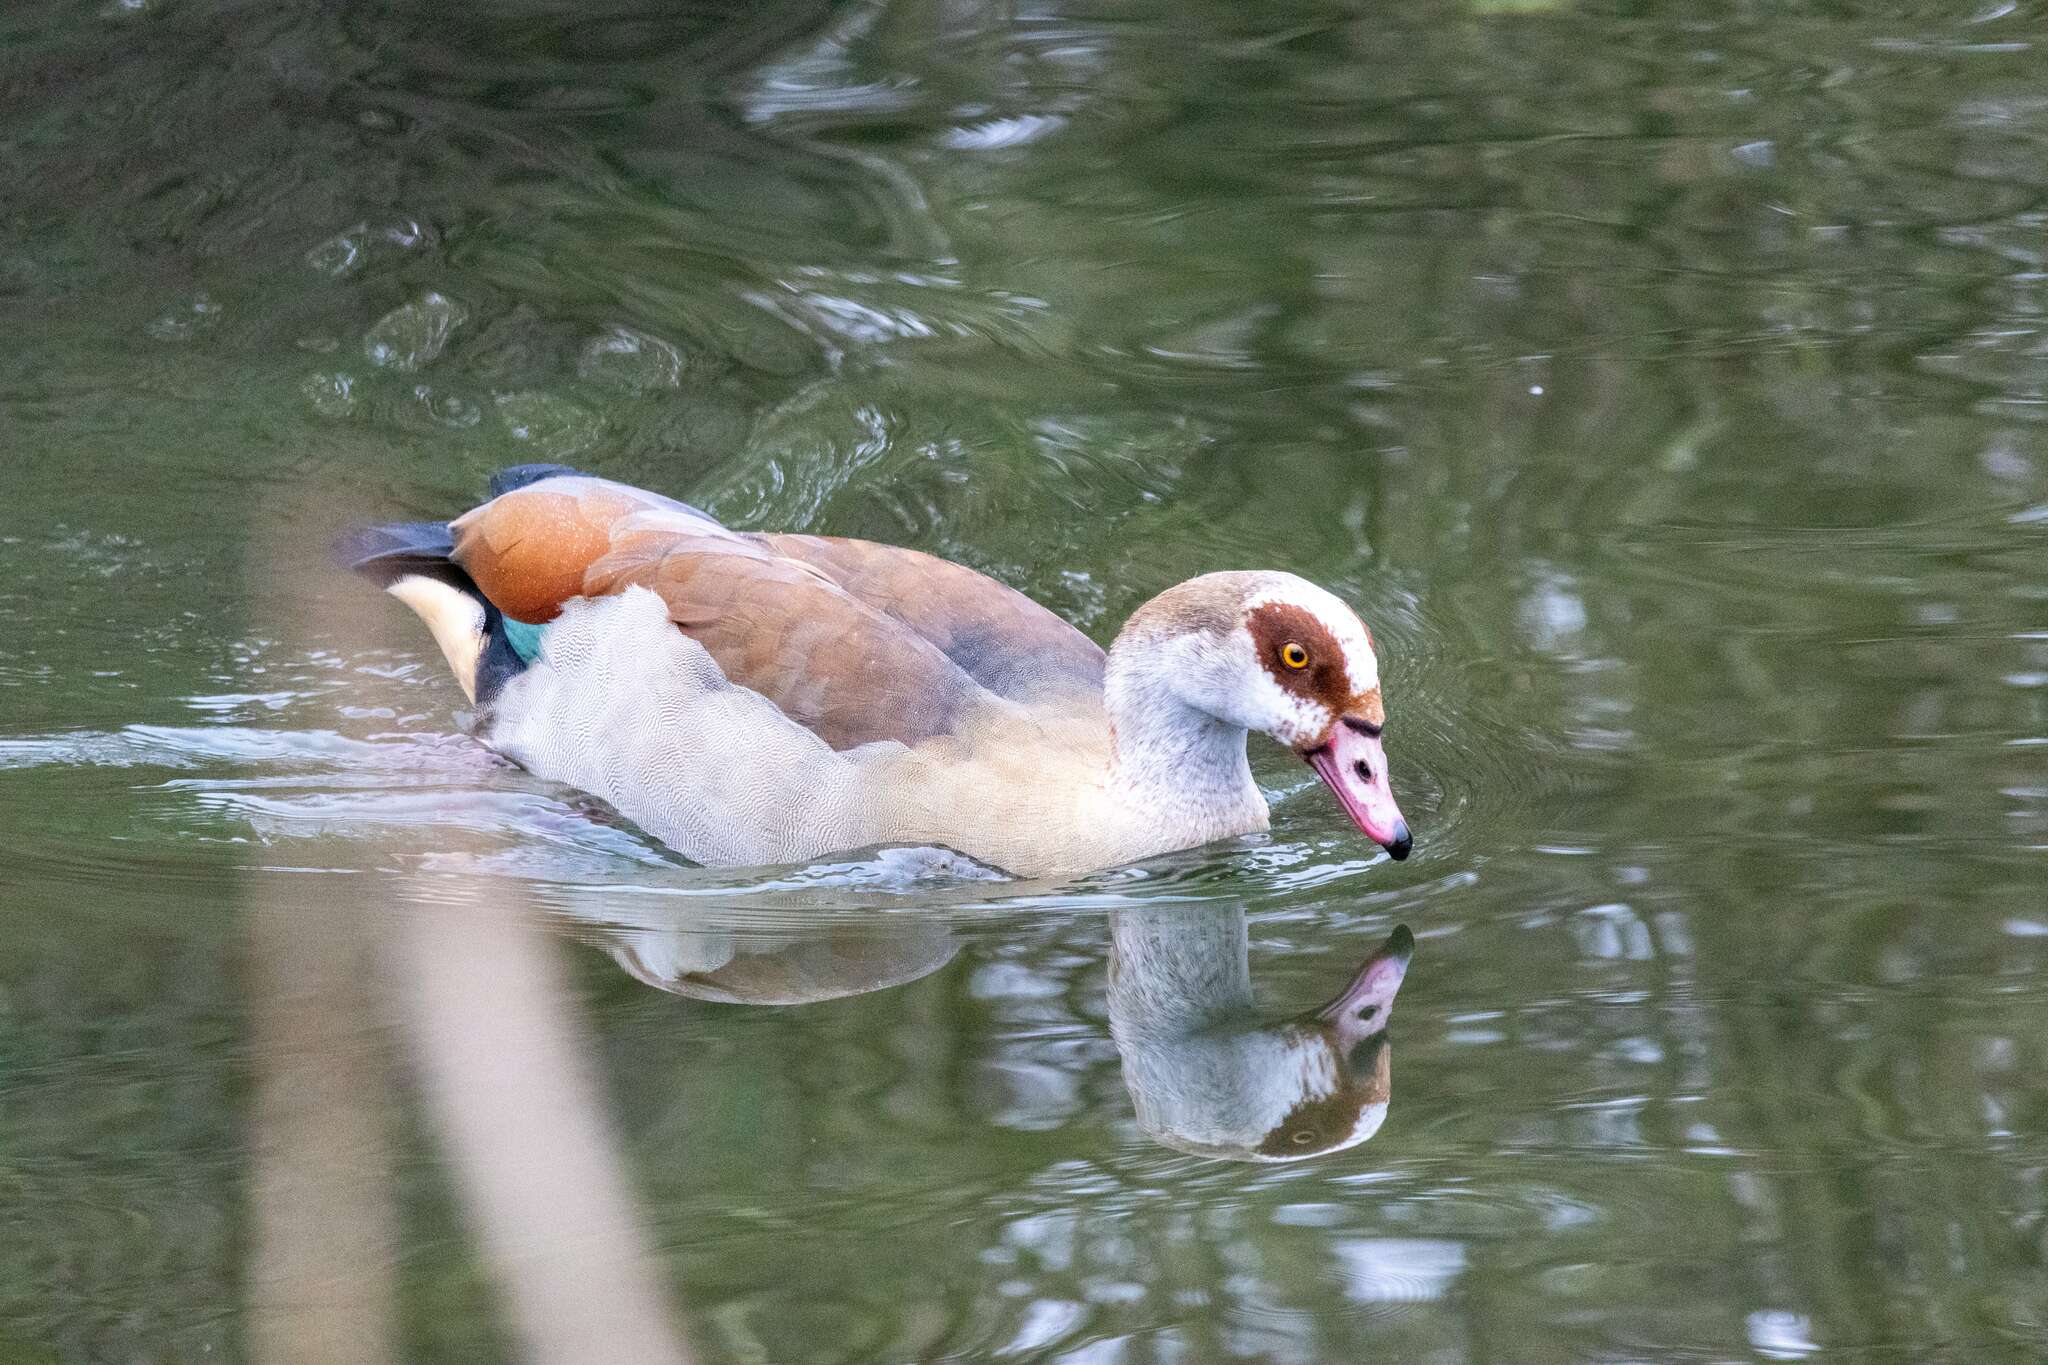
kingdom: Animalia
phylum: Chordata
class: Aves
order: Anseriformes
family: Anatidae
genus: Alopochen
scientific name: Alopochen aegyptiaca
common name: Egyptian goose
